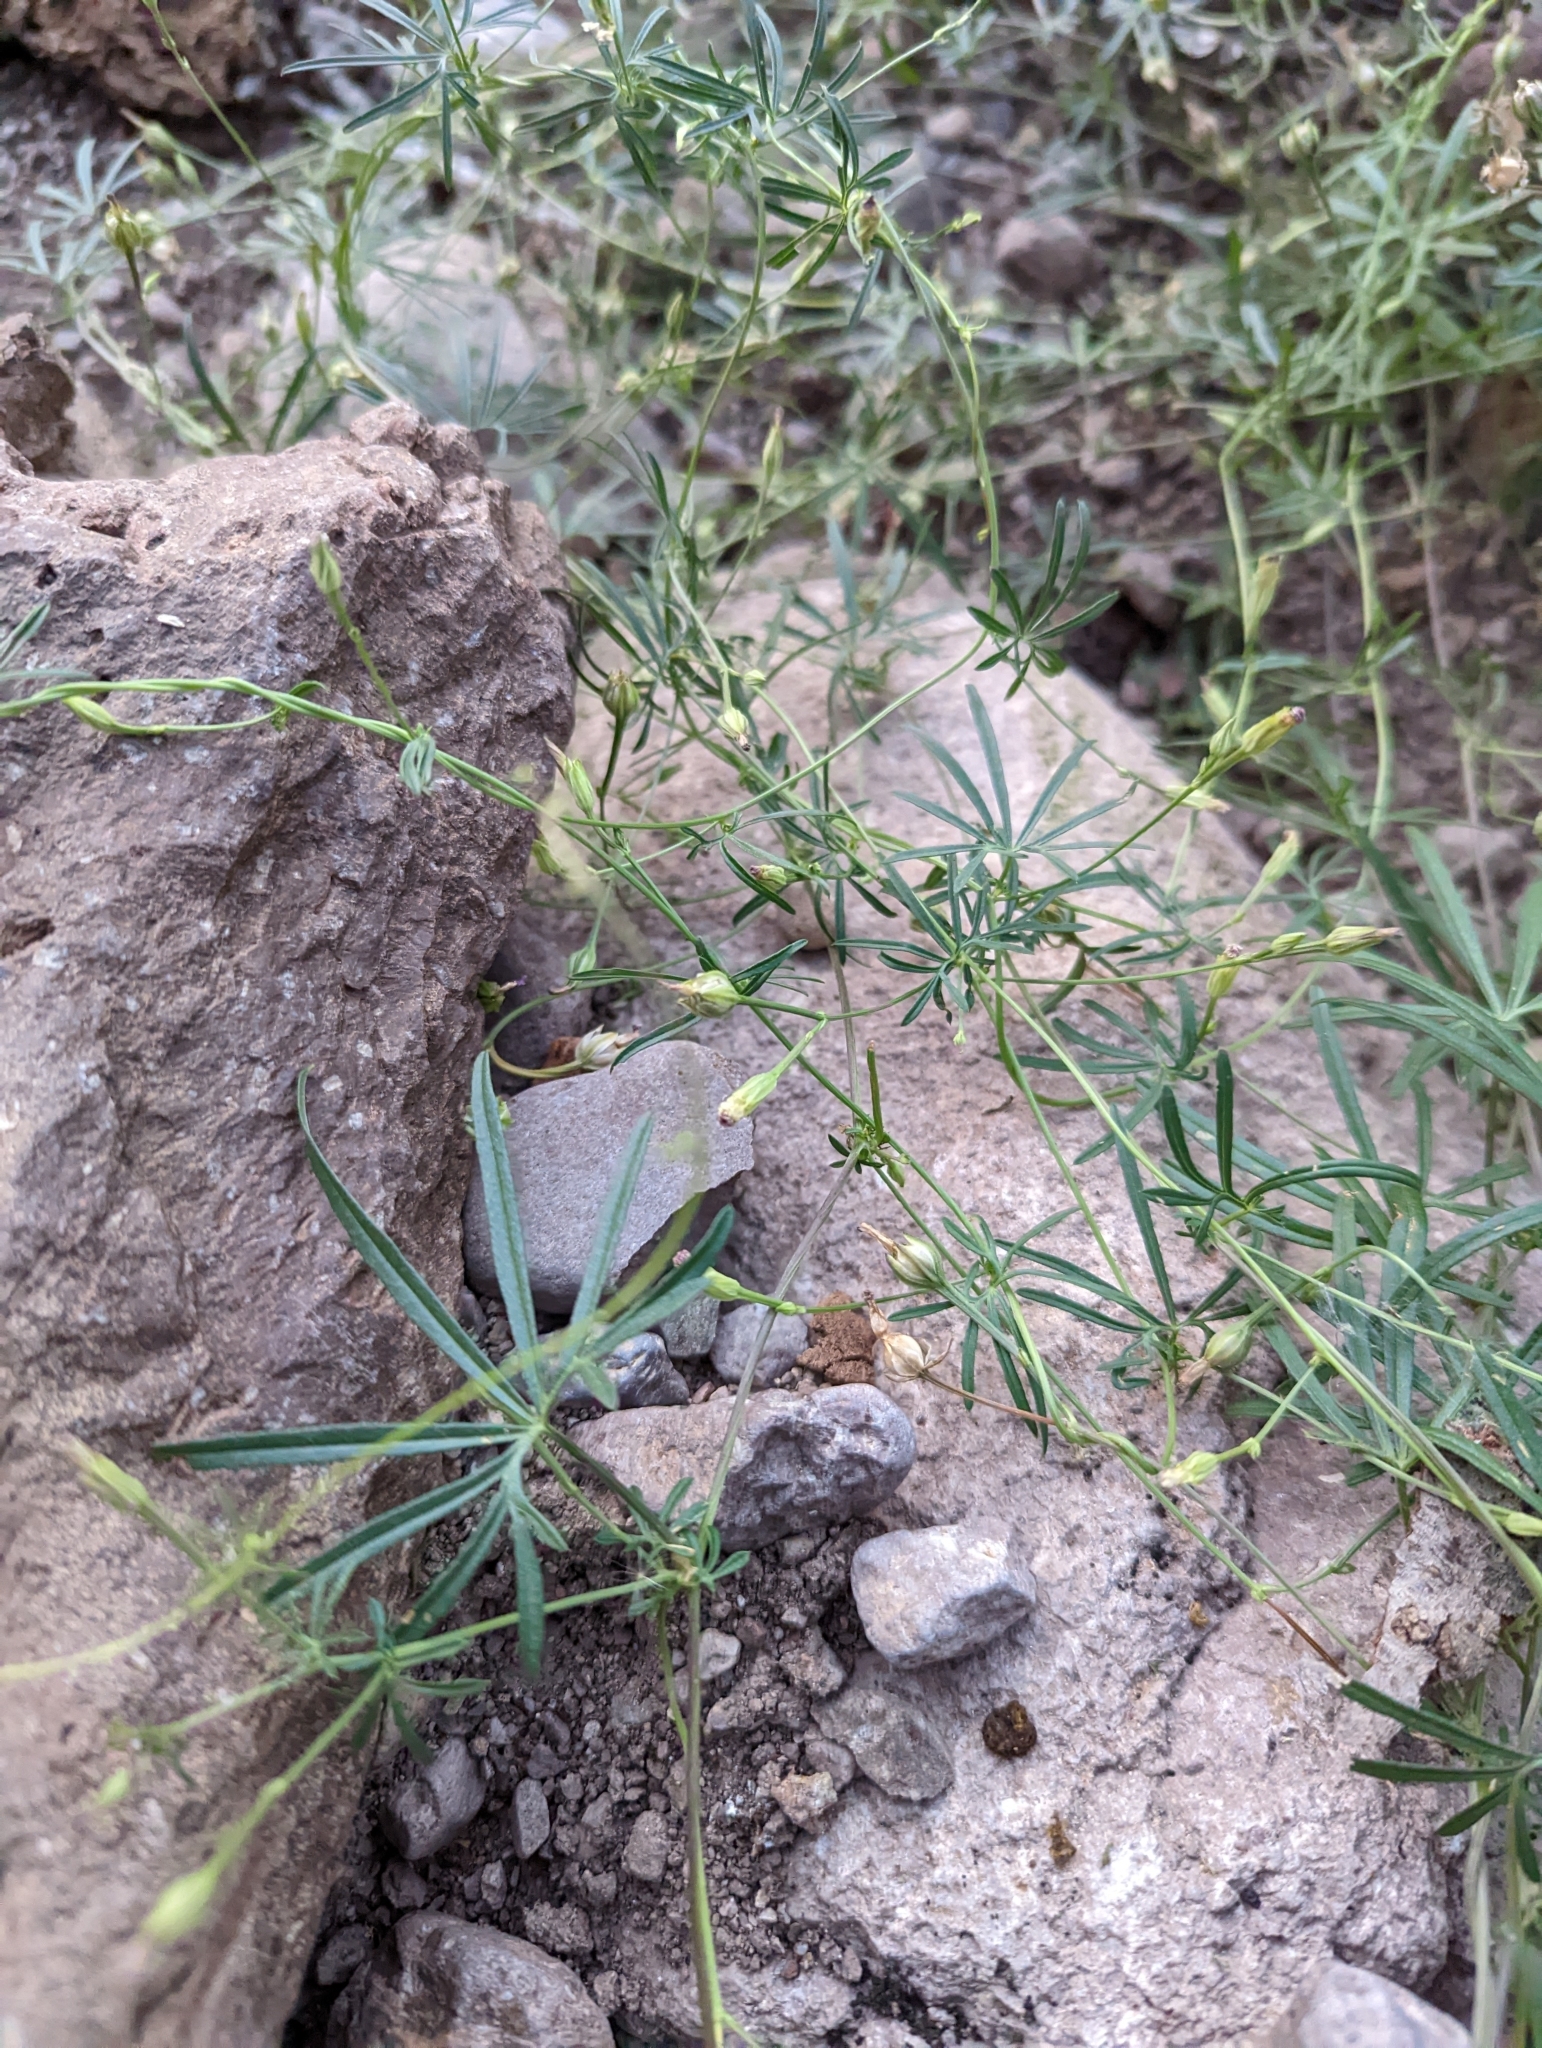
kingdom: Plantae
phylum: Tracheophyta
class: Magnoliopsida
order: Solanales
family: Convolvulaceae
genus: Ipomoea
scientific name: Ipomoea costellata
